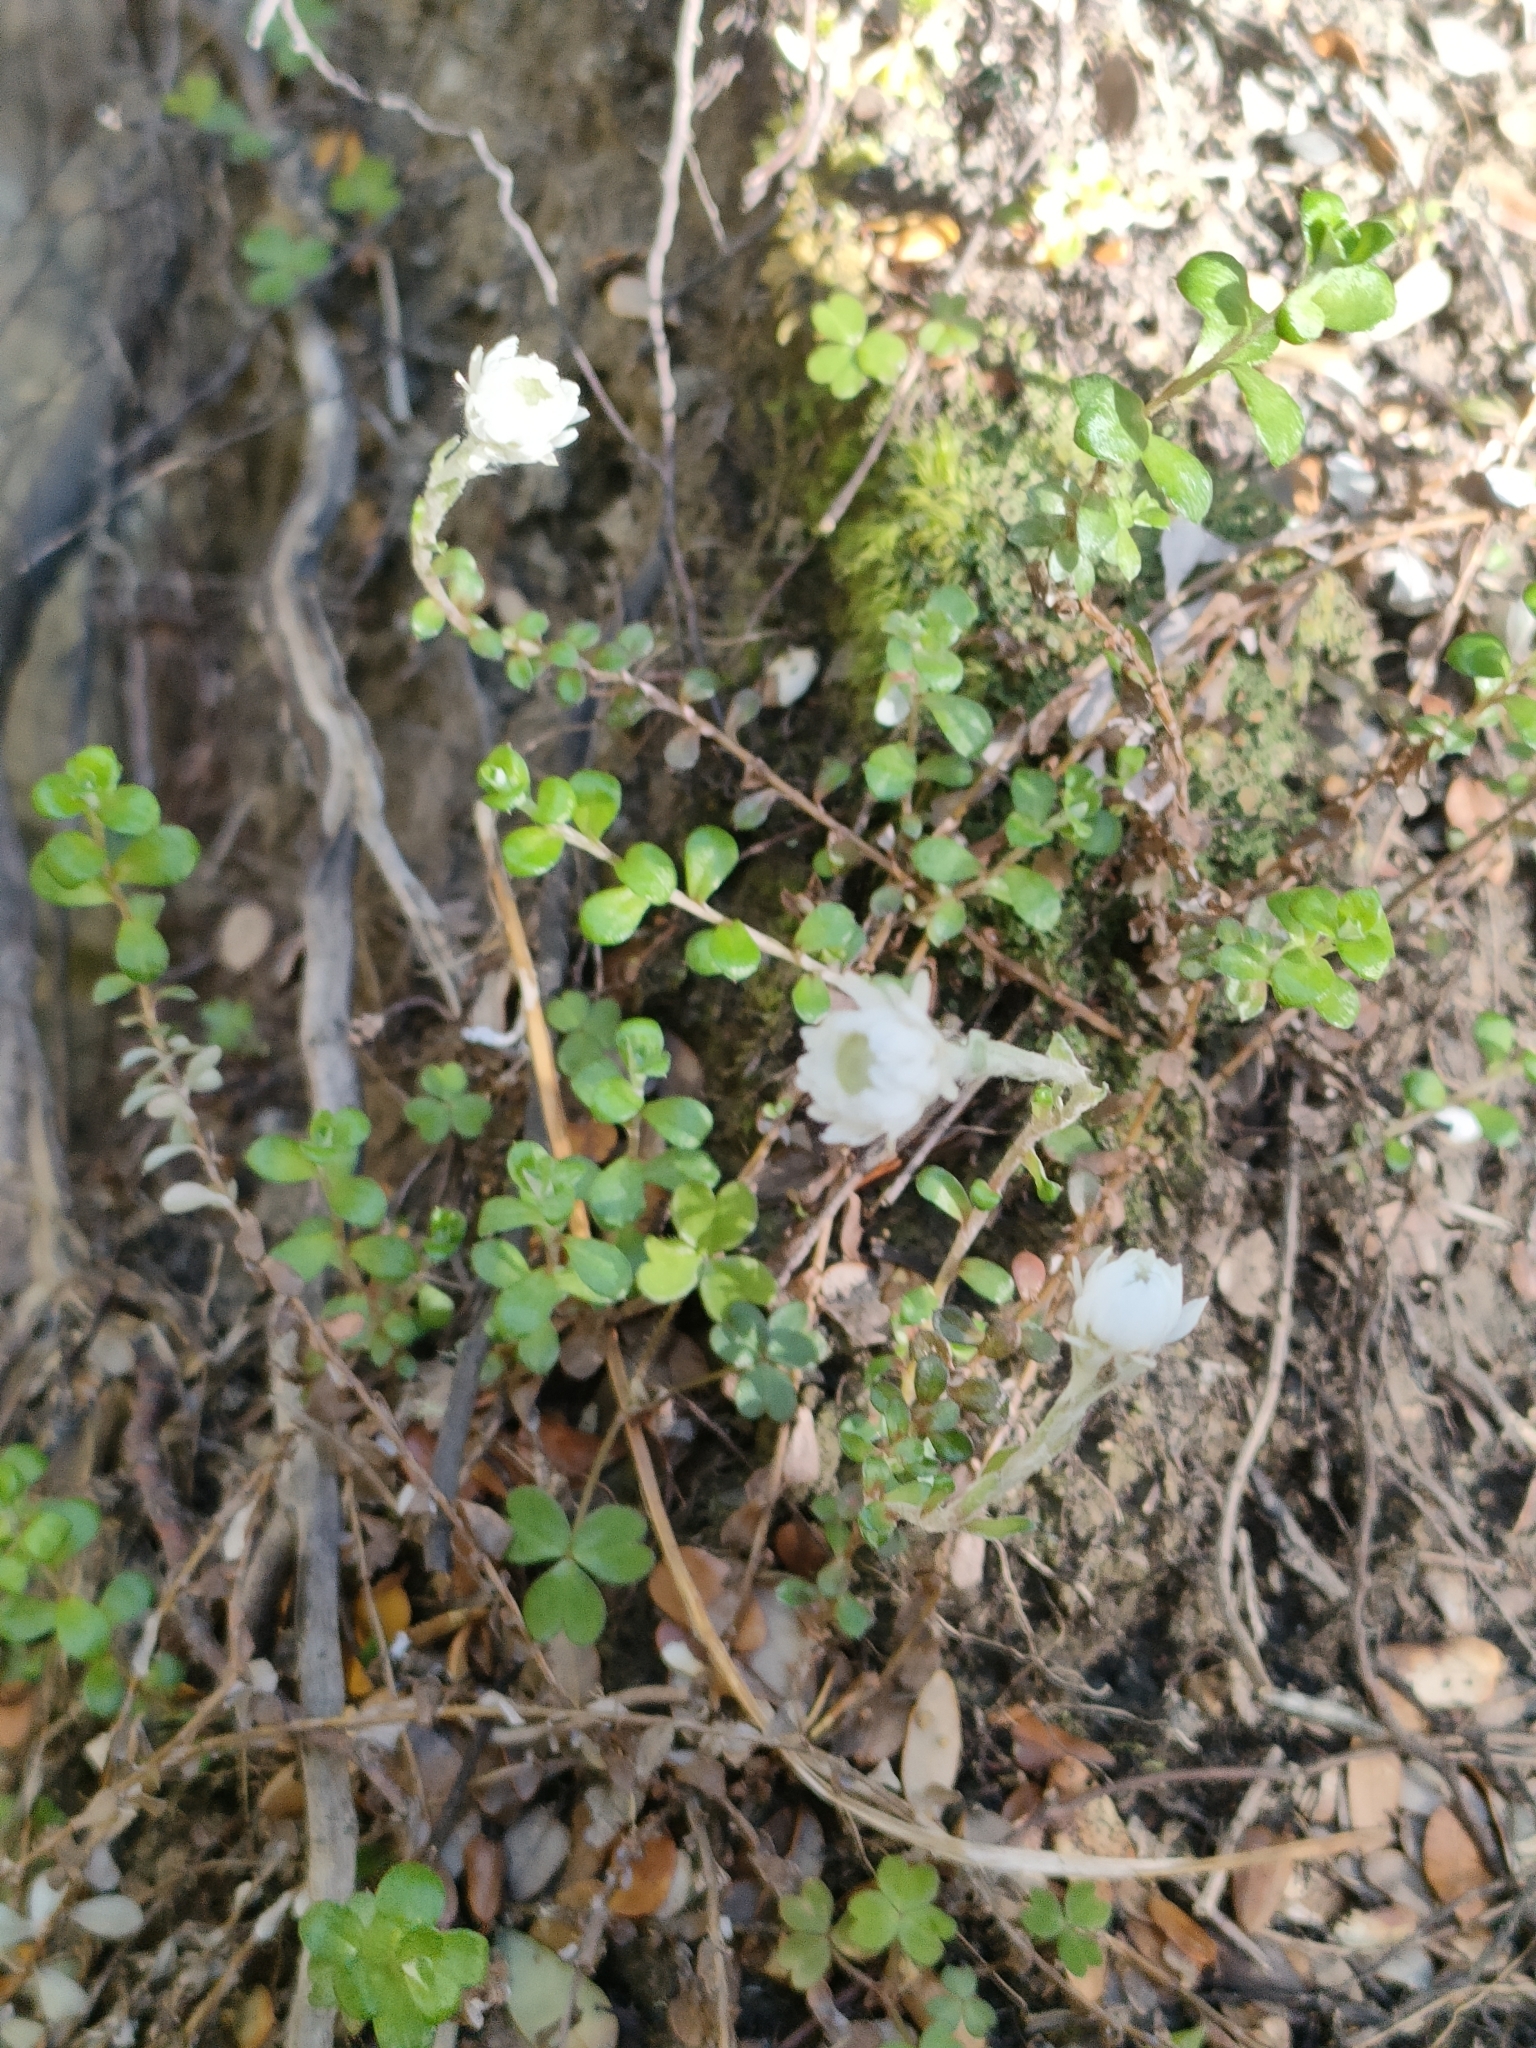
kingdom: Plantae
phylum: Tracheophyta
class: Magnoliopsida
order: Asterales
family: Asteraceae
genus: Anaphalioides
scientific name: Anaphalioides bellidioides
